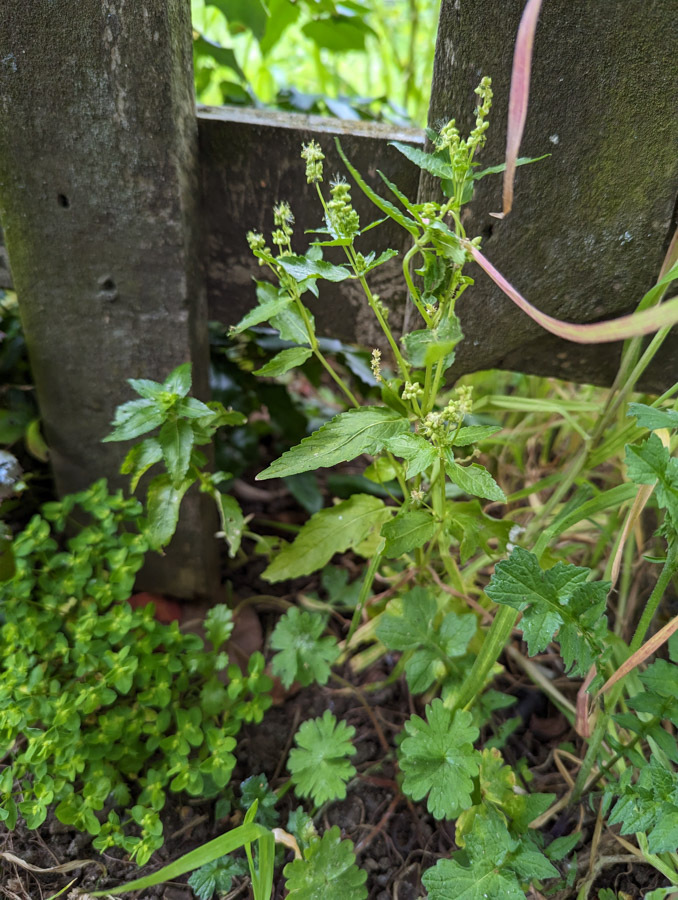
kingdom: Plantae
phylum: Tracheophyta
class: Magnoliopsida
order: Malpighiales
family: Euphorbiaceae
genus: Mercurialis
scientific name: Mercurialis annua
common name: Annual mercury
